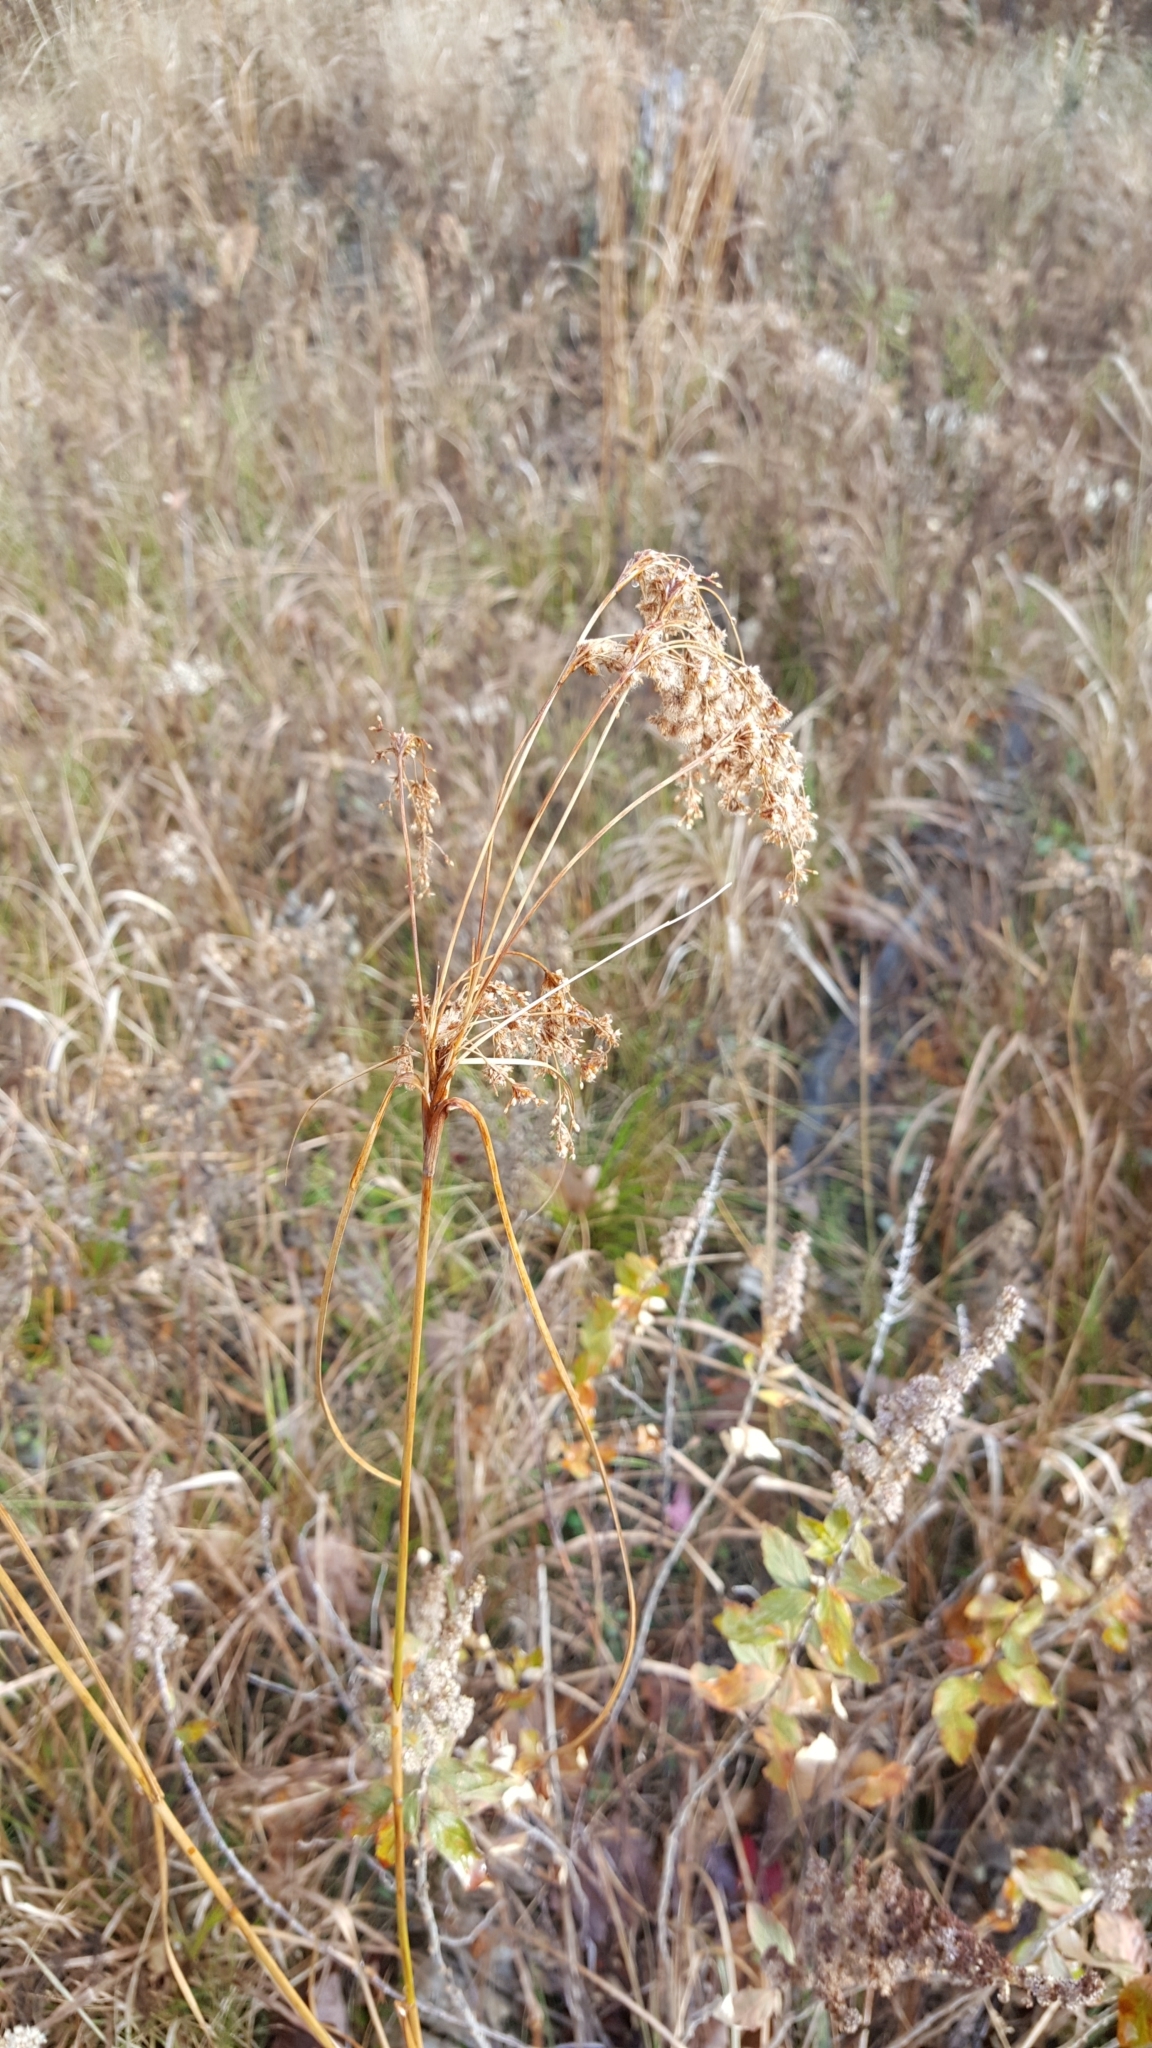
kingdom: Plantae
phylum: Tracheophyta
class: Liliopsida
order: Poales
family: Cyperaceae
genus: Scirpus
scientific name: Scirpus cyperinus
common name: Black-sheathed bulrush
